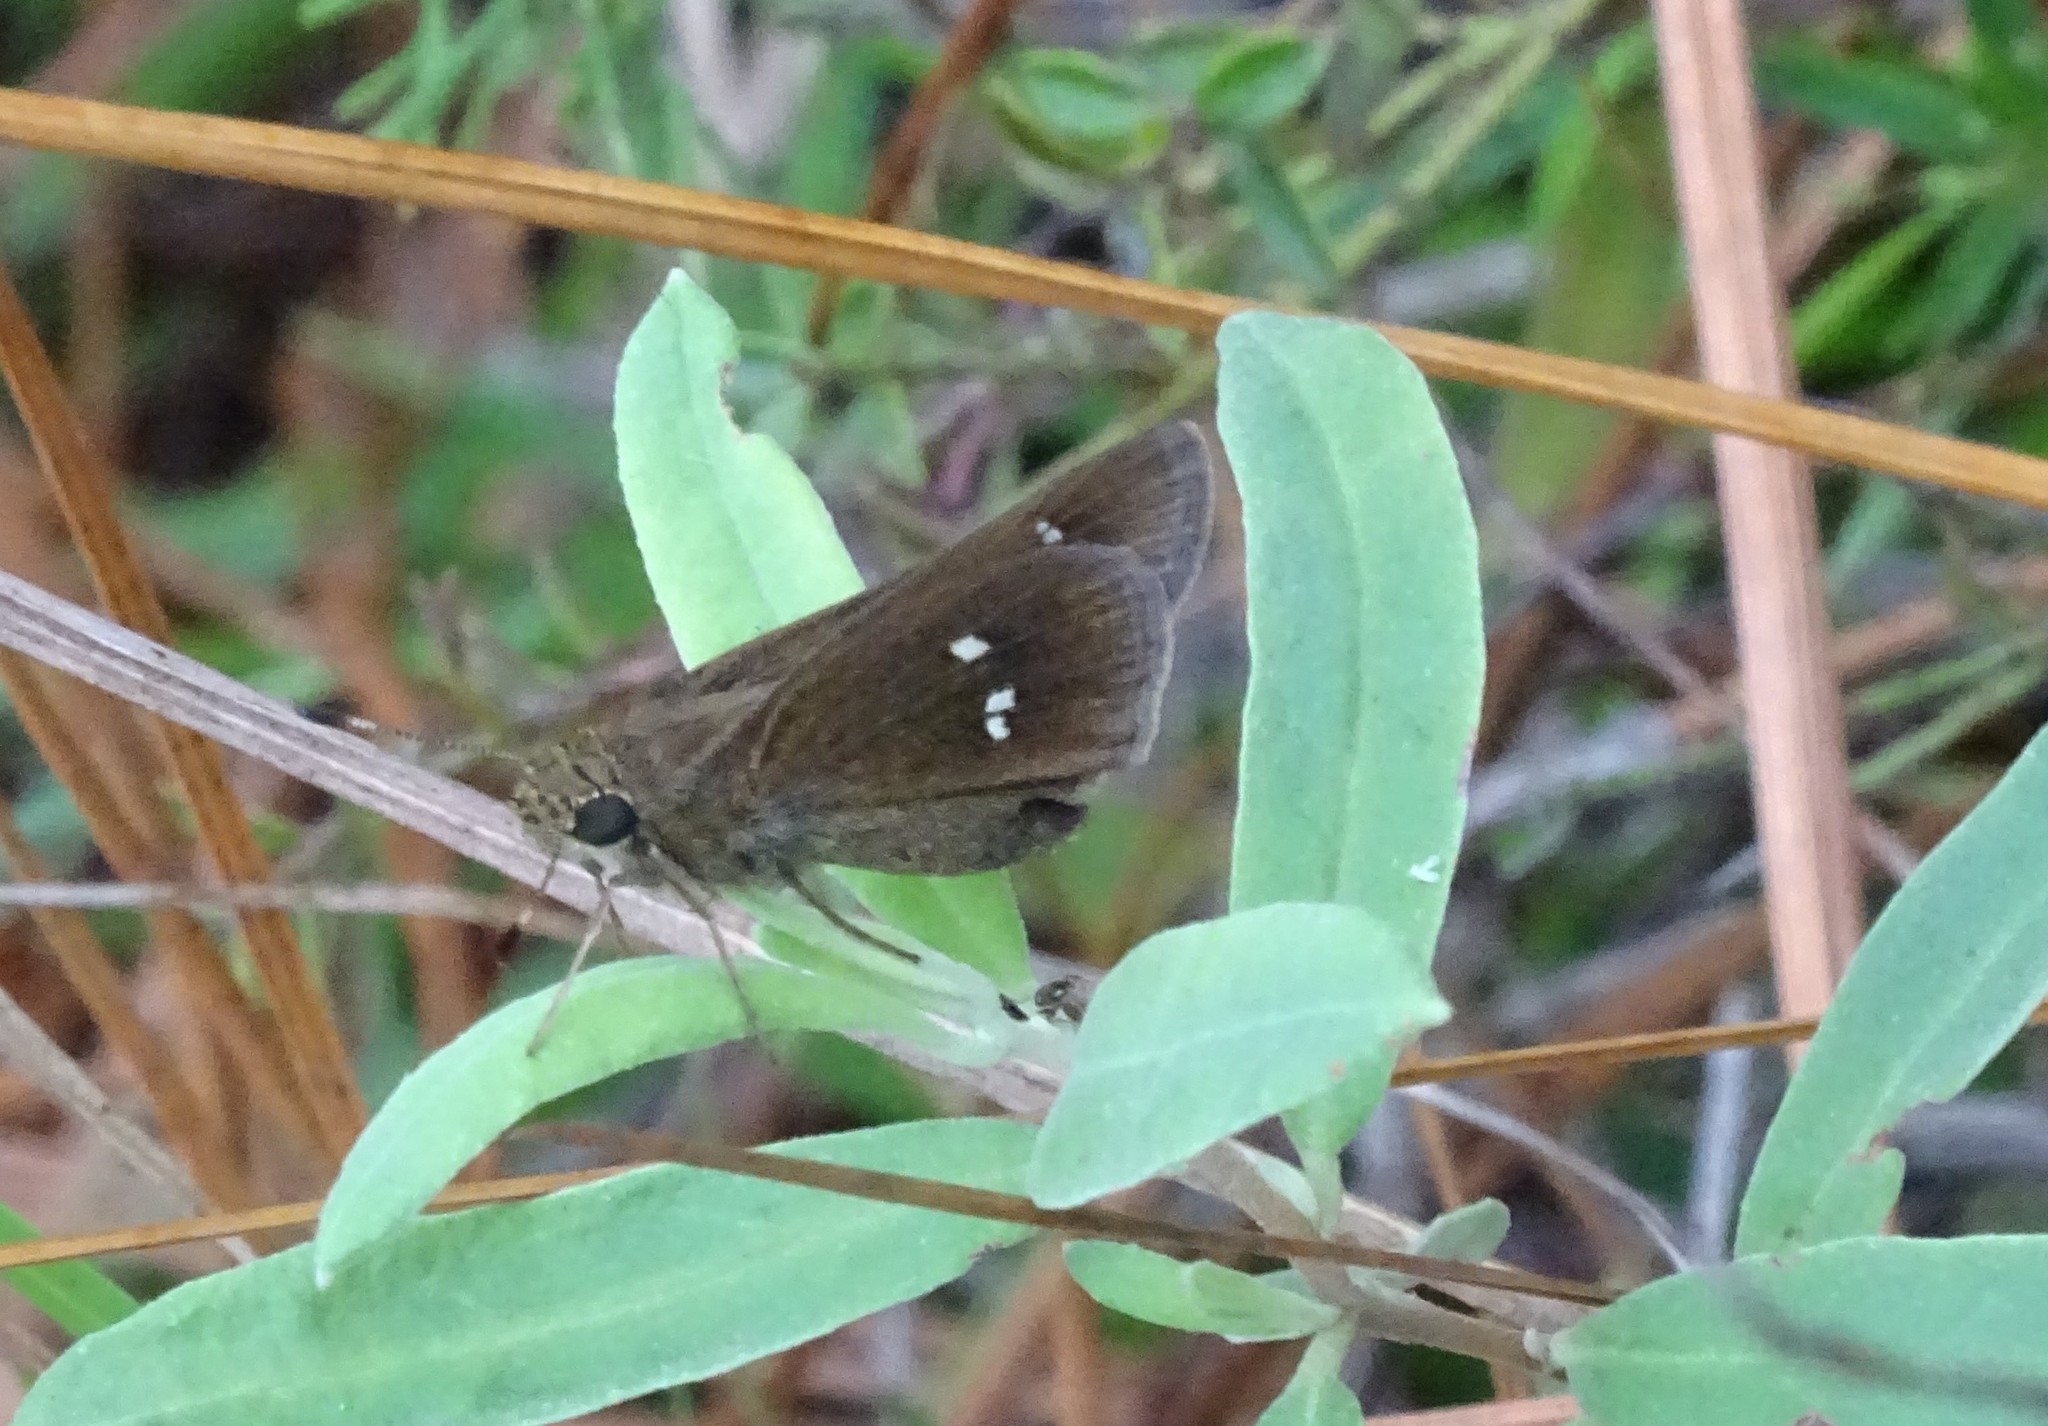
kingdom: Animalia
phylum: Arthropoda
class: Insecta
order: Lepidoptera
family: Hesperiidae
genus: Oligoria
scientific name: Oligoria maculata
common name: Twin-spot skipper
